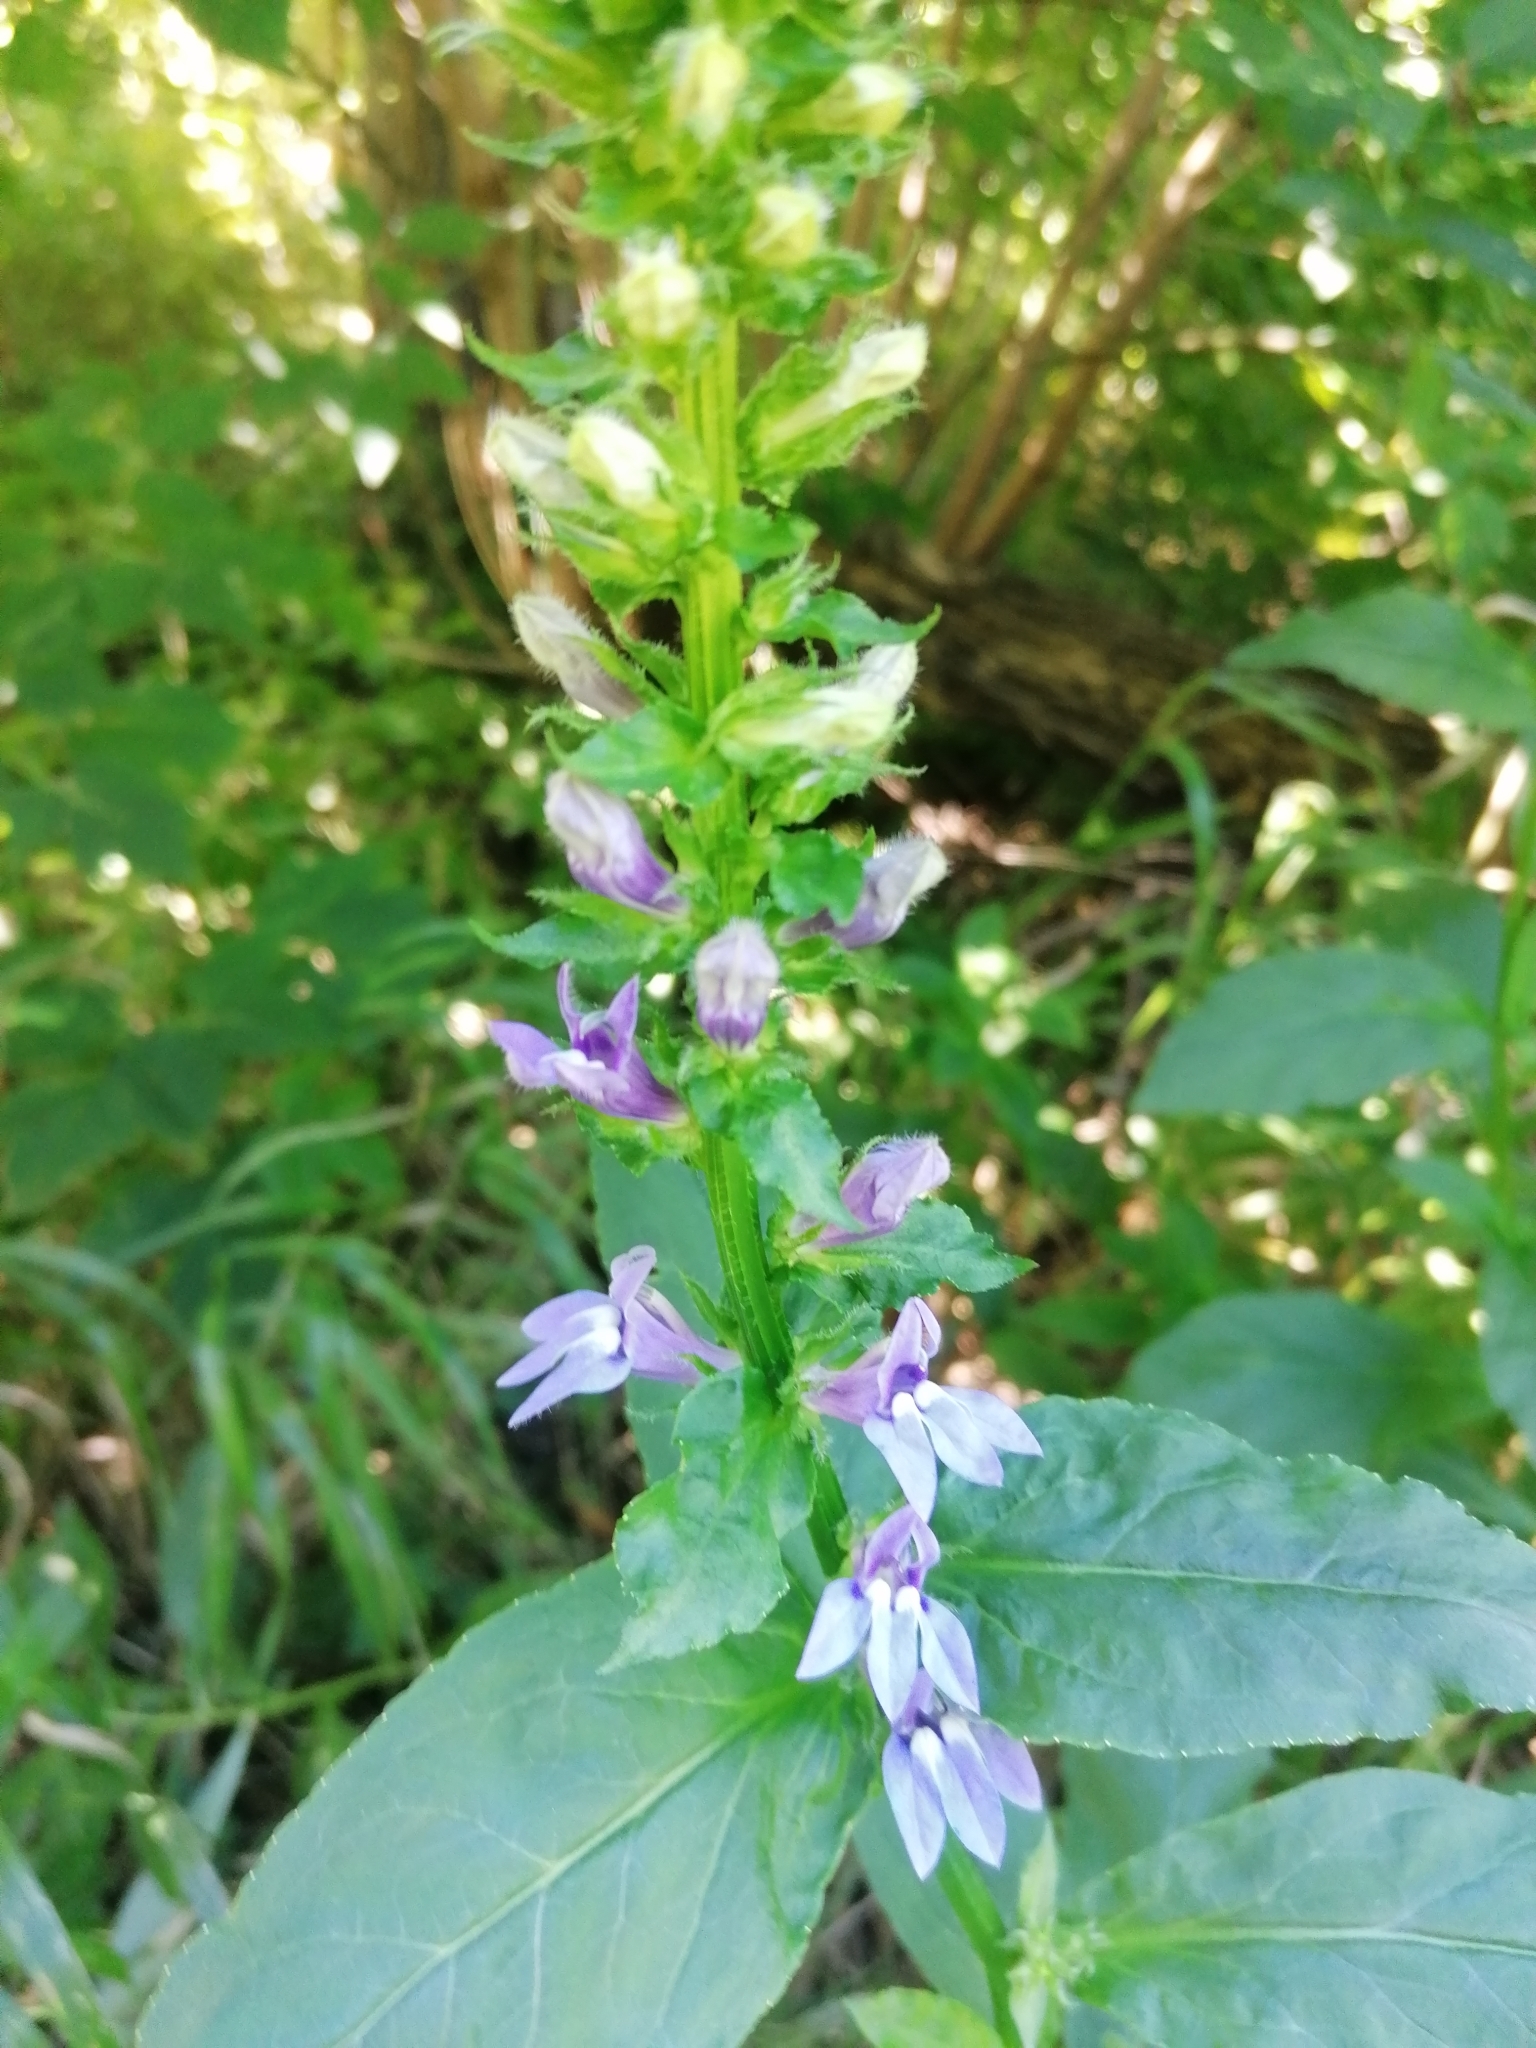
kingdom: Plantae
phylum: Tracheophyta
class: Magnoliopsida
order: Asterales
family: Campanulaceae
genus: Lobelia
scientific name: Lobelia siphilitica
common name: Great lobelia
